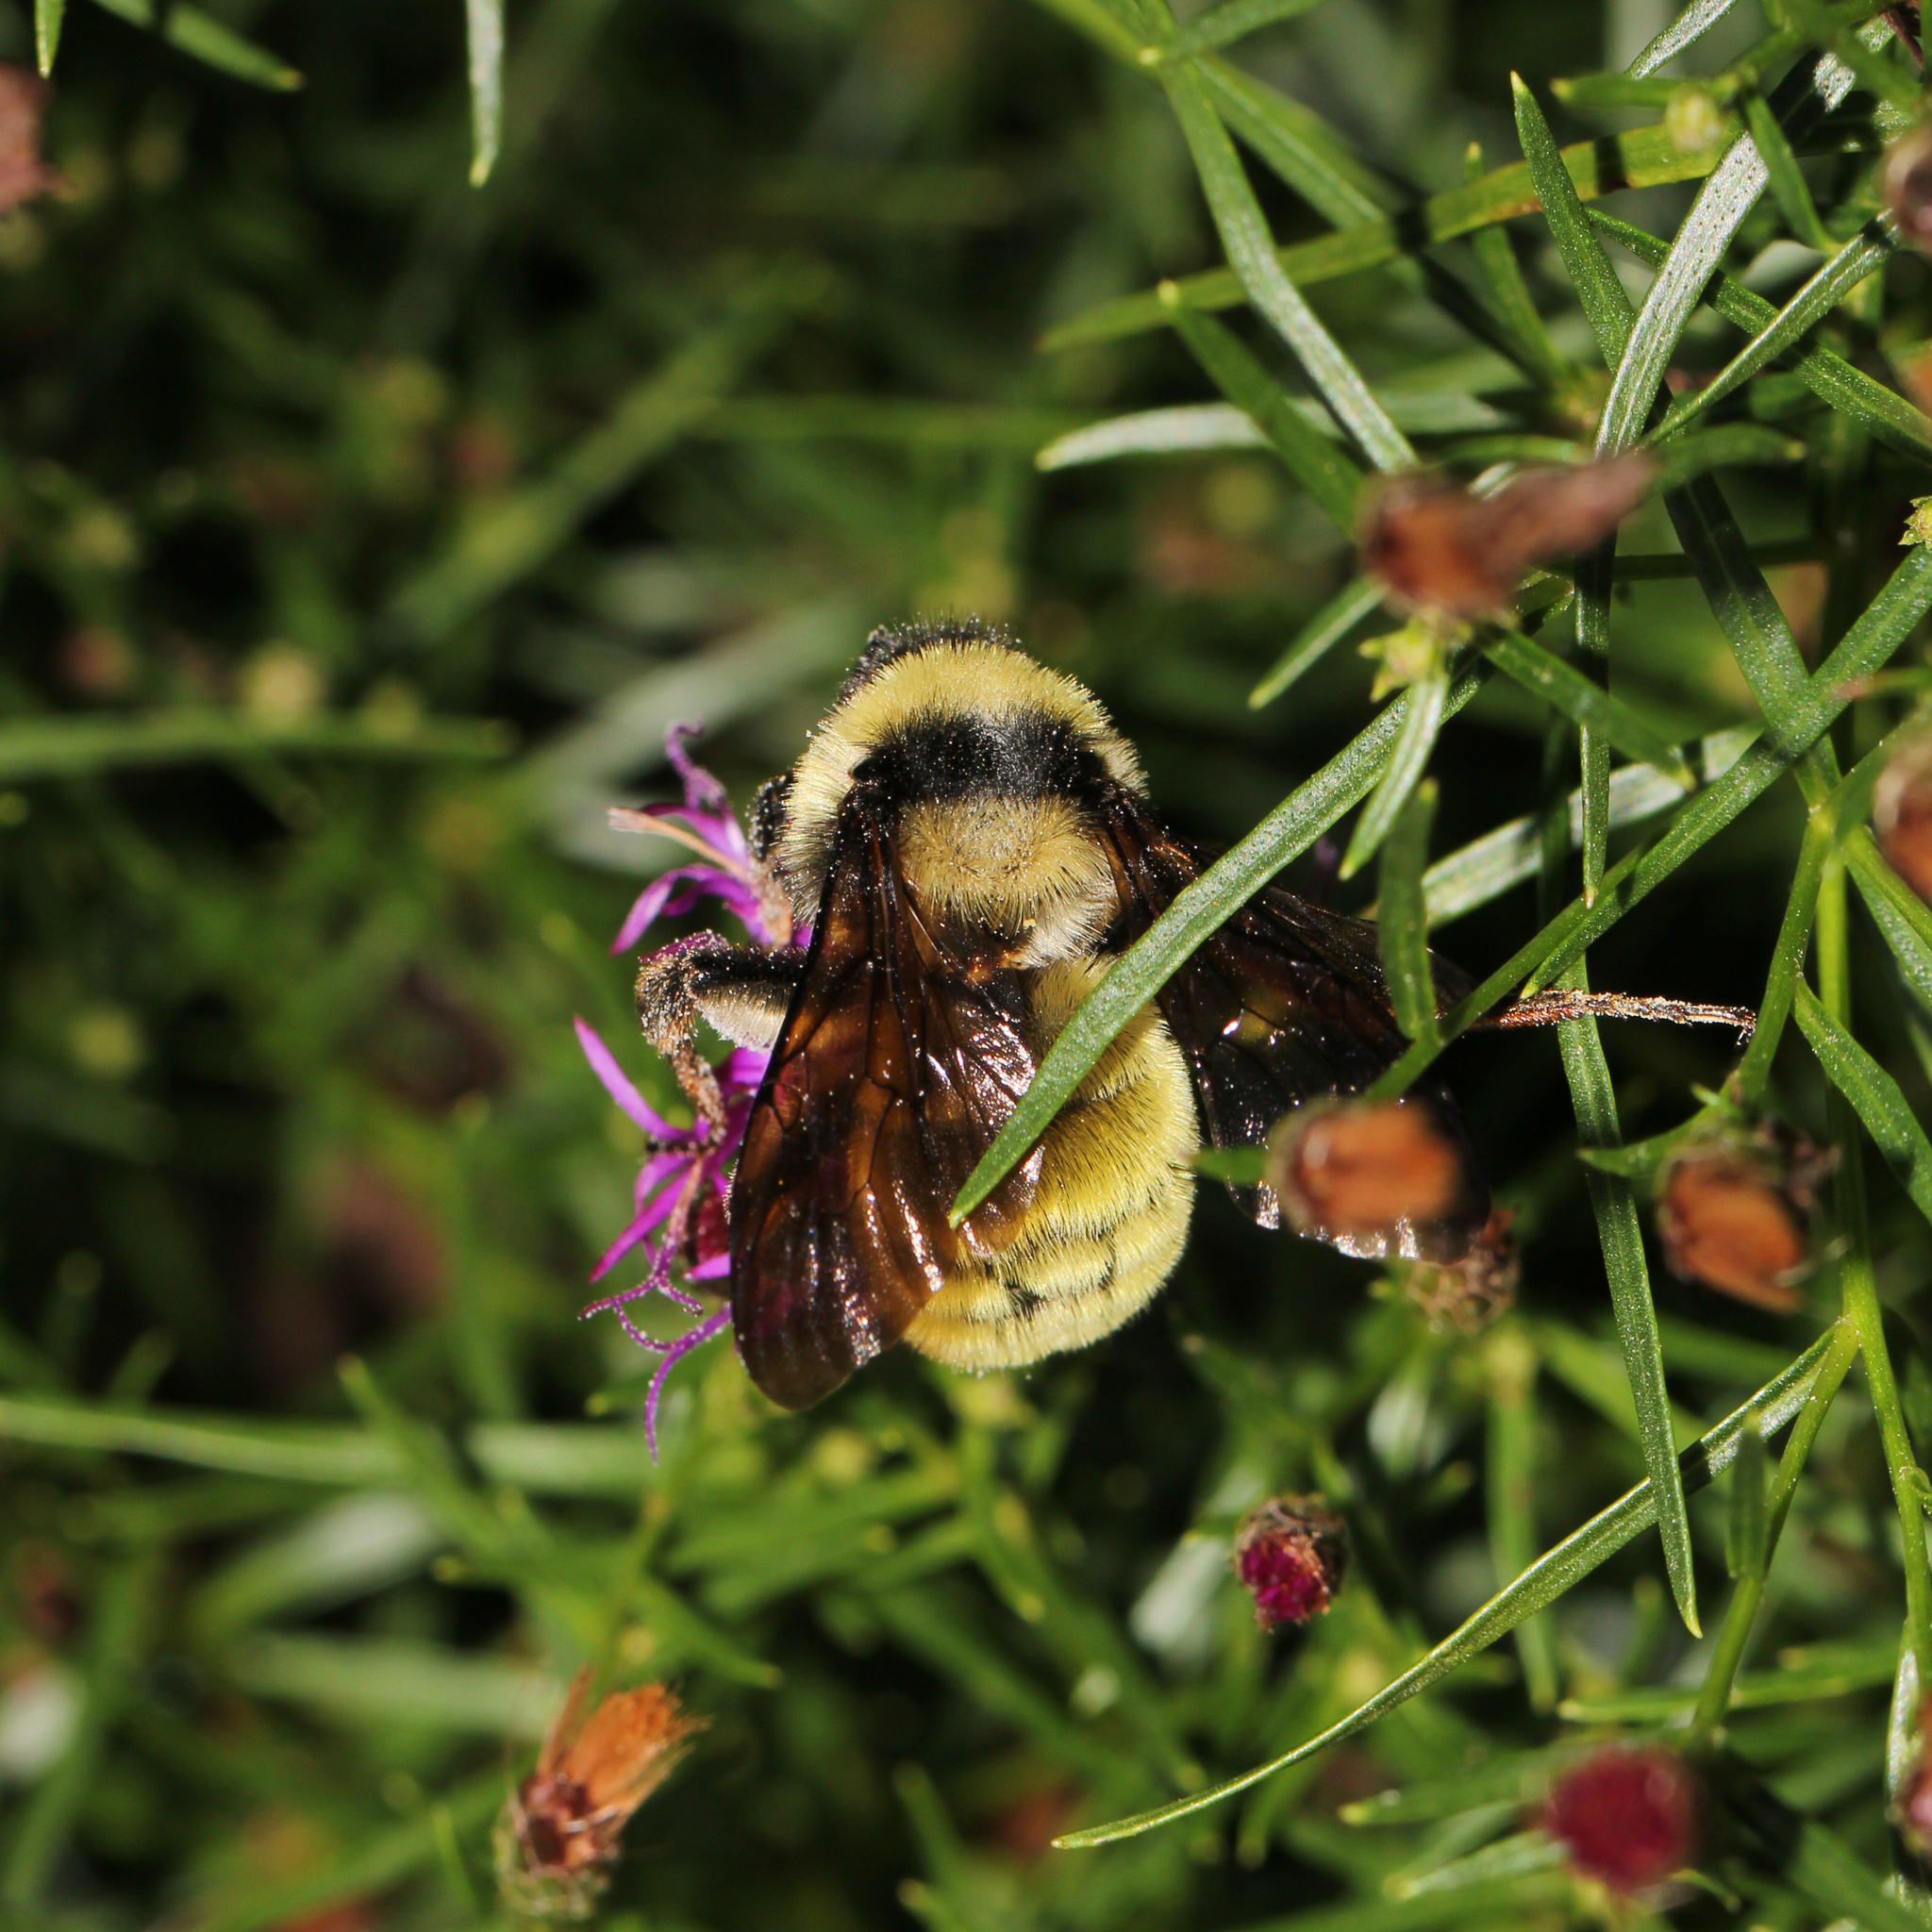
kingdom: Animalia
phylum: Arthropoda
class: Insecta
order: Hymenoptera
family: Apidae
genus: Bombus
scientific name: Bombus fervidus
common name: Yellow bumble bee
